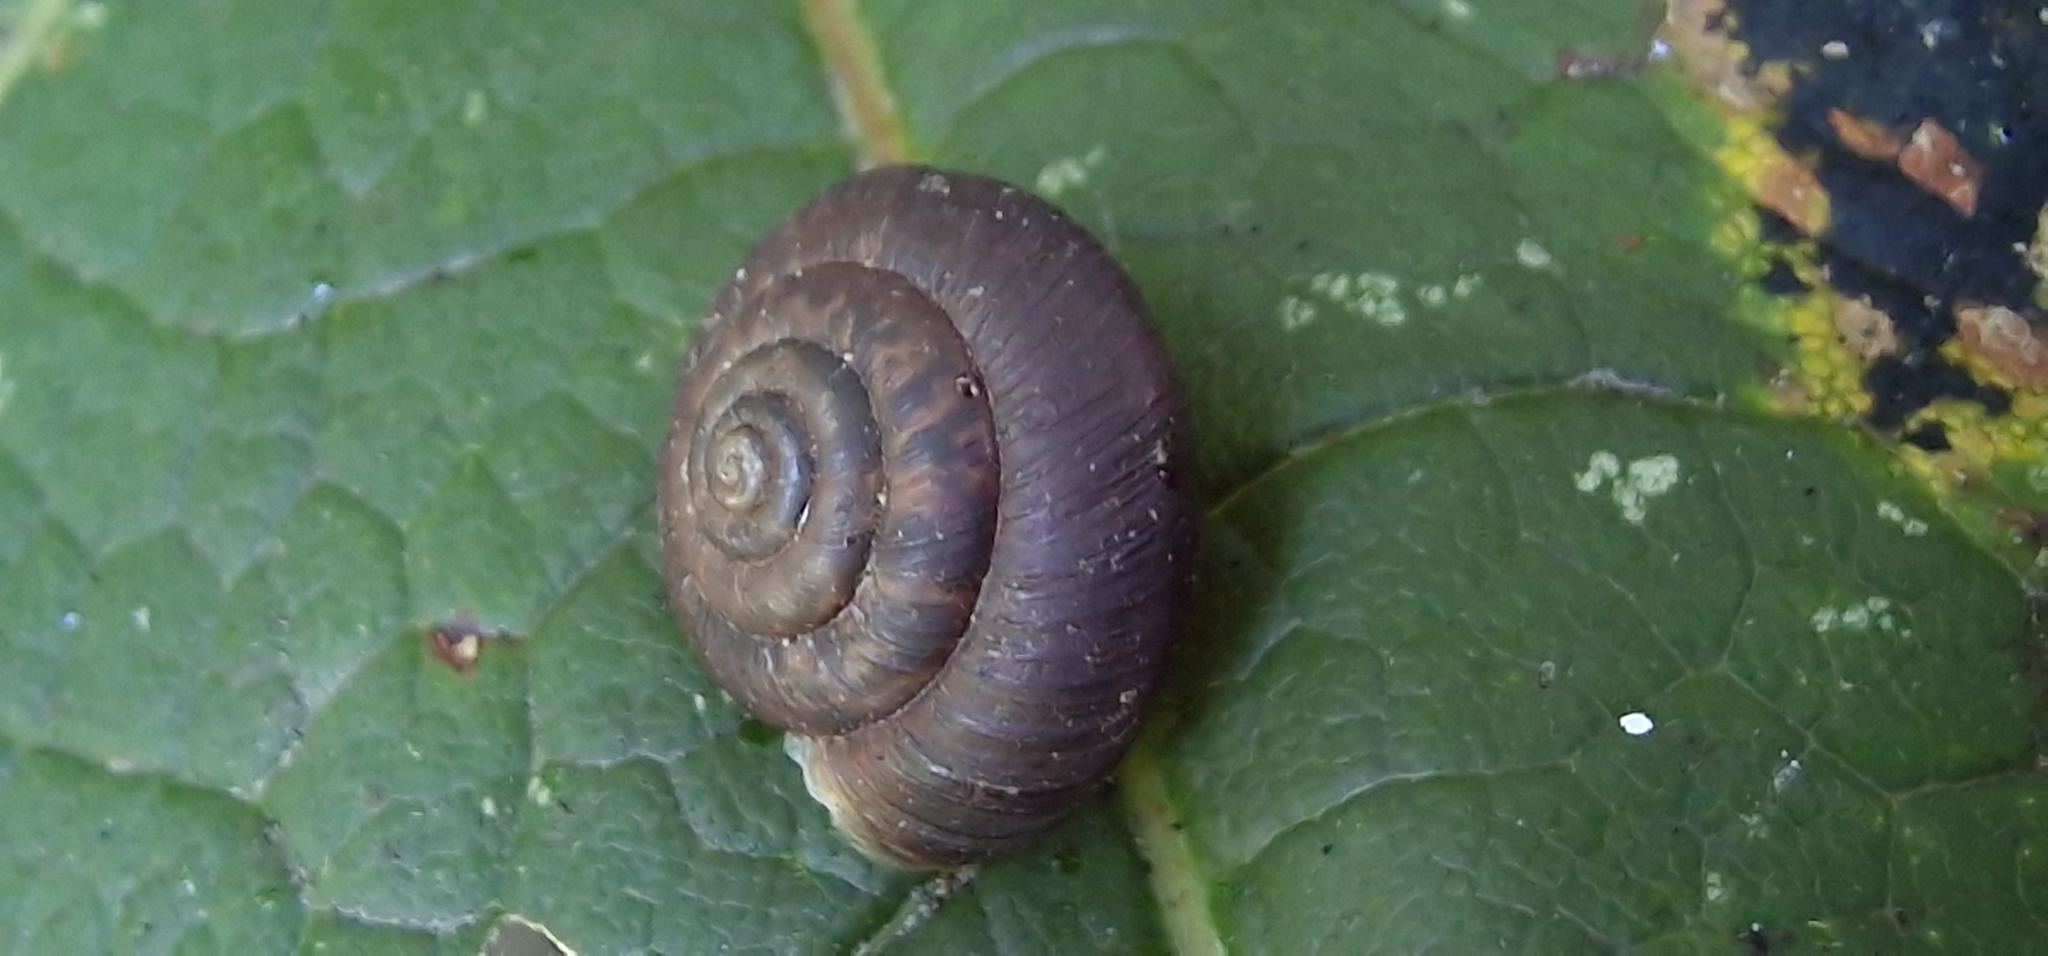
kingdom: Animalia
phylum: Mollusca
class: Gastropoda
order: Stylommatophora
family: Hygromiidae
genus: Trochulus
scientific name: Trochulus striolatus
